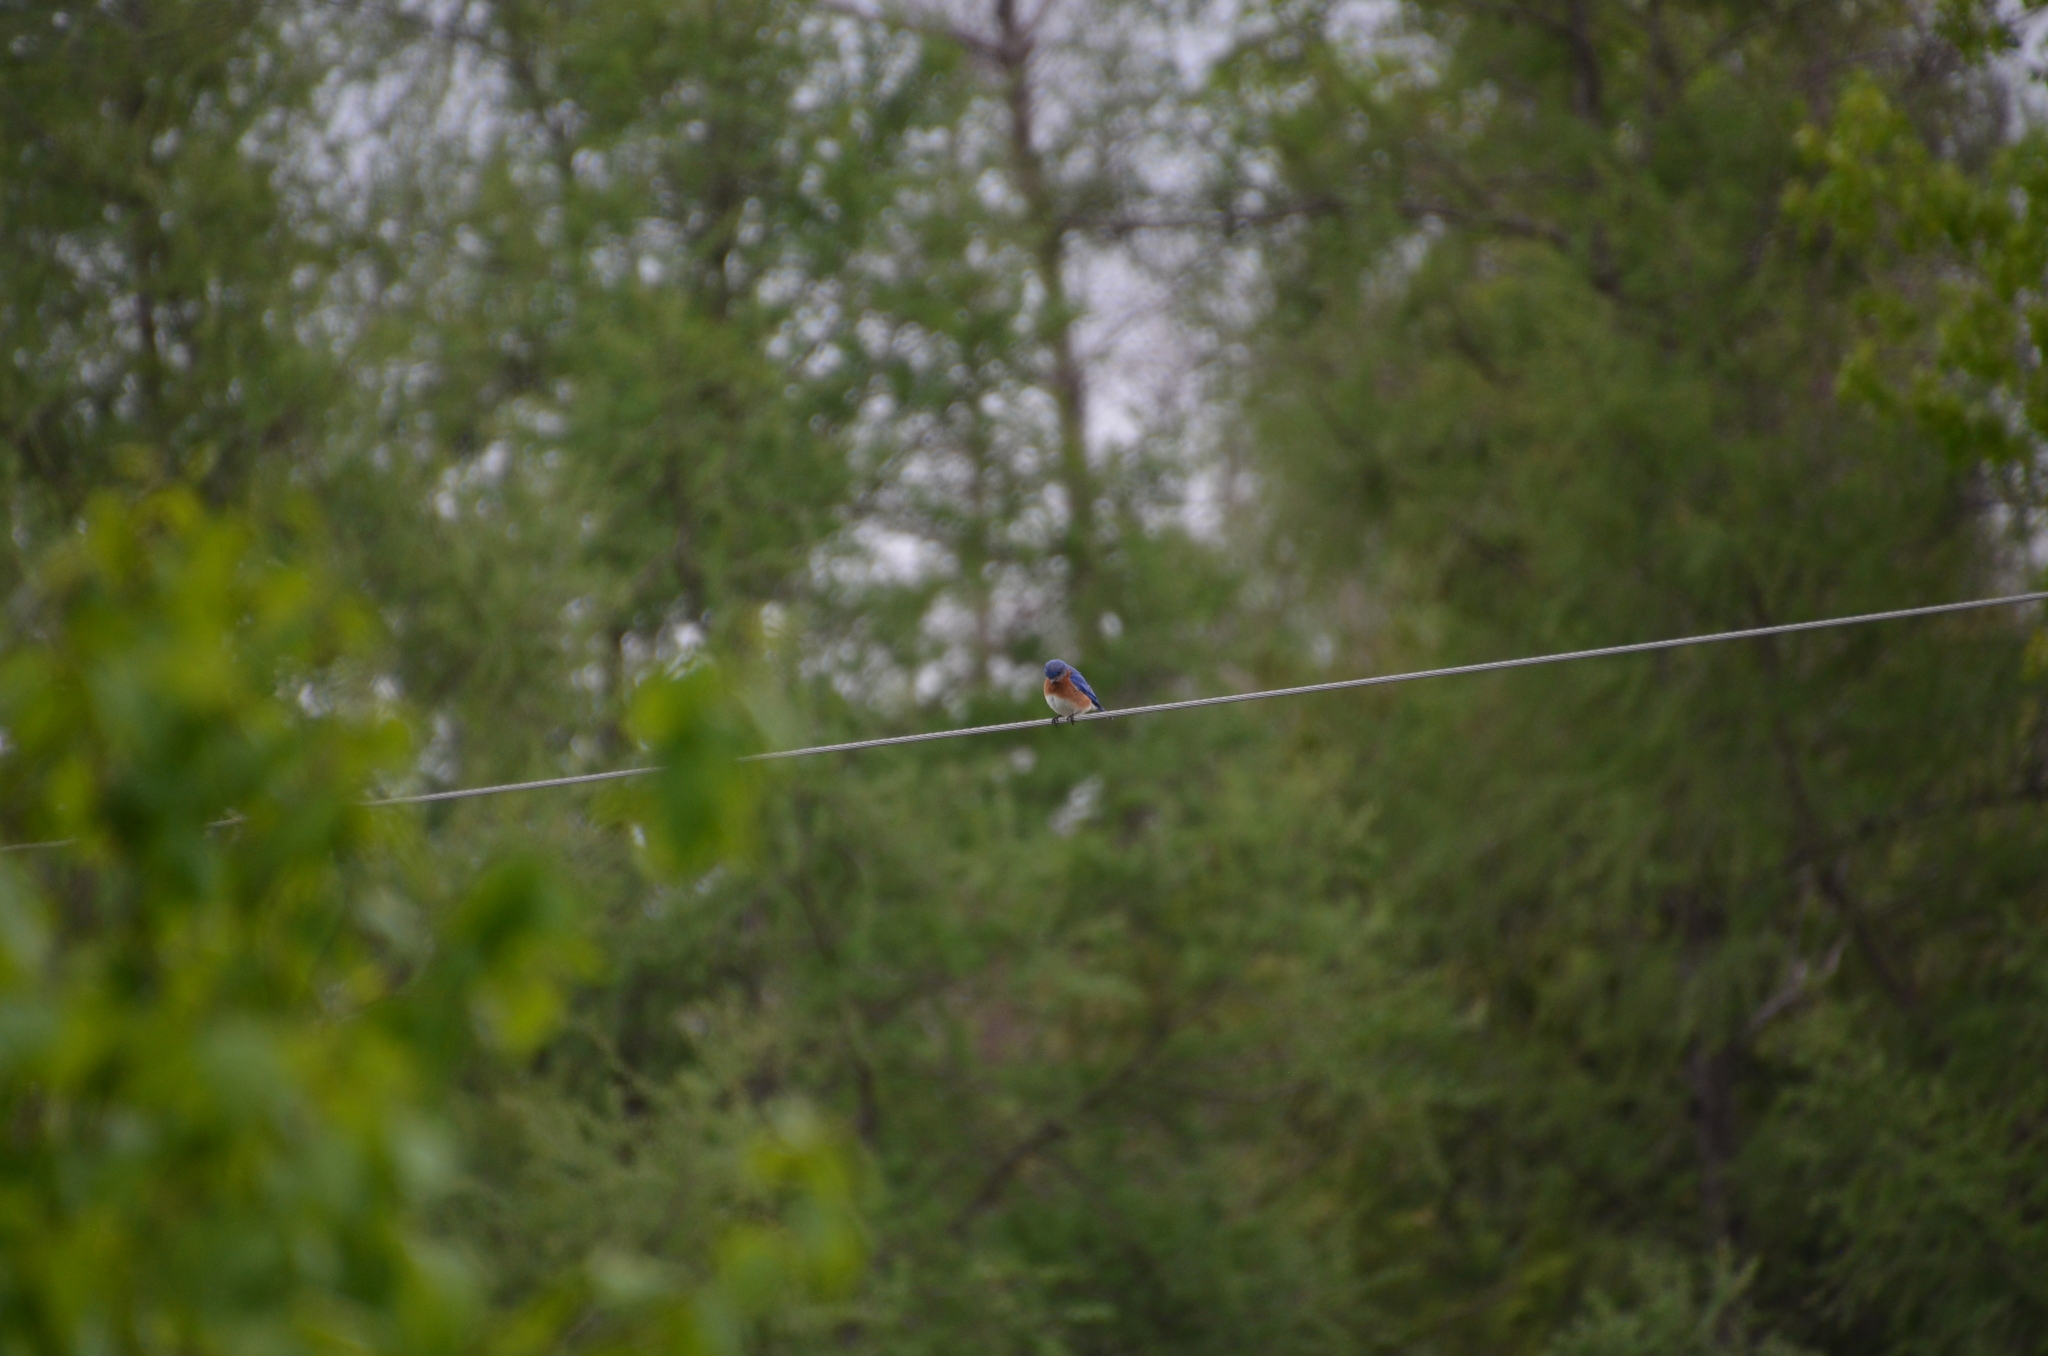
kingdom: Animalia
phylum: Chordata
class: Aves
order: Passeriformes
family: Turdidae
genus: Sialia
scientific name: Sialia sialis
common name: Eastern bluebird
